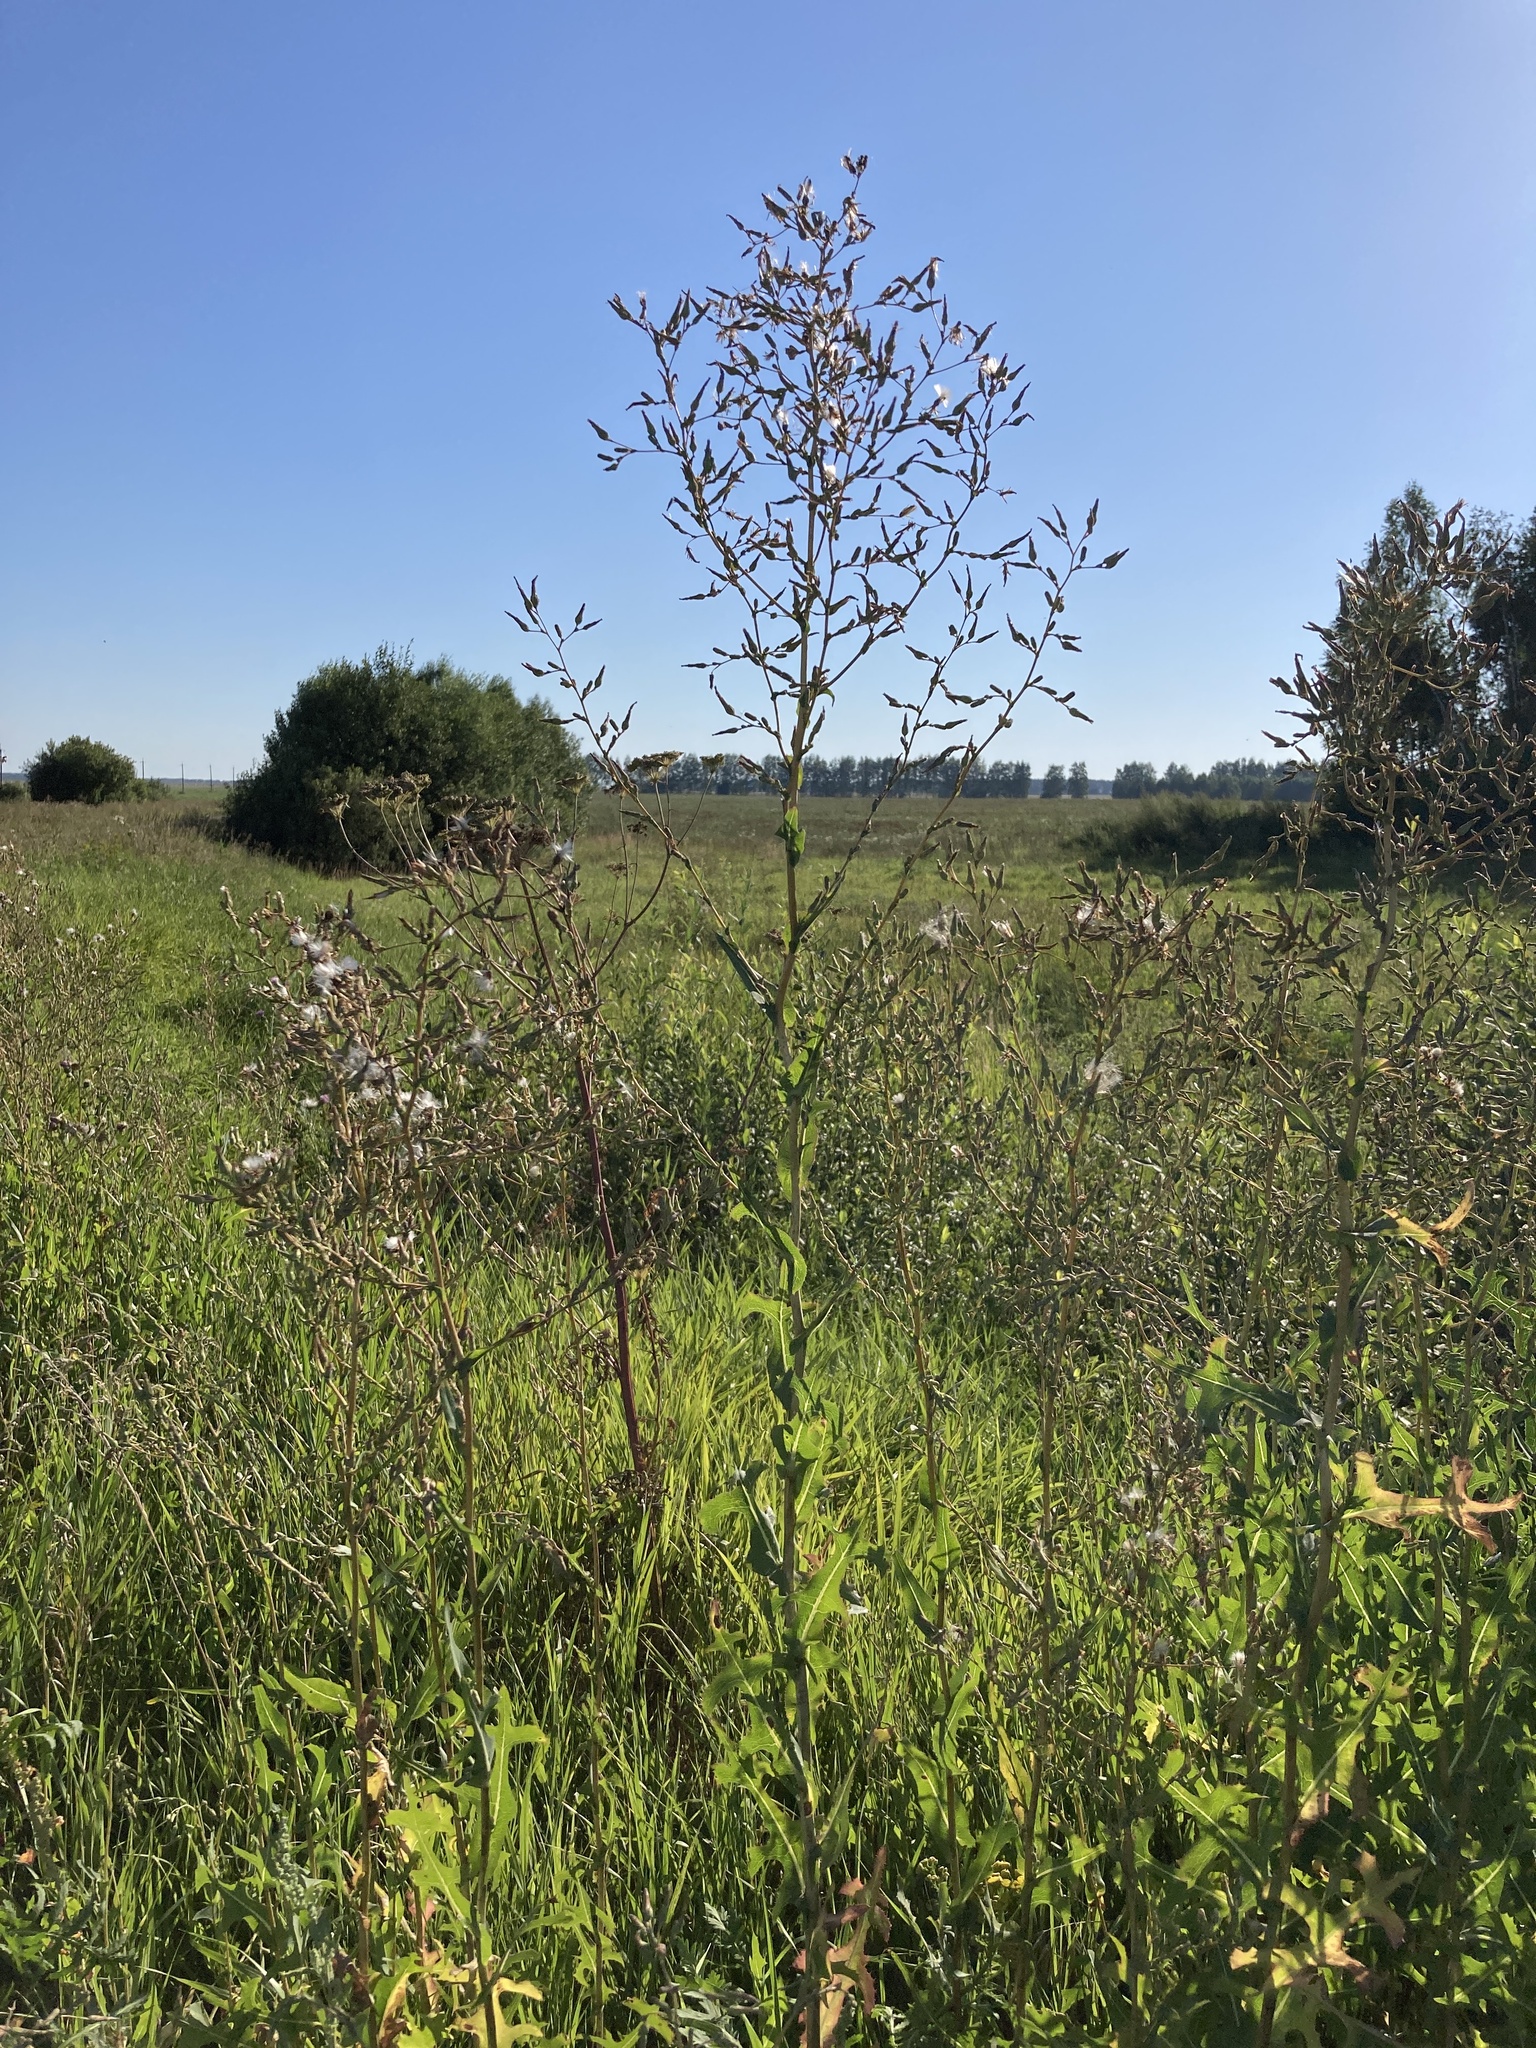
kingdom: Plantae
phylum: Tracheophyta
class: Magnoliopsida
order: Asterales
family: Asteraceae
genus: Lactuca
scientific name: Lactuca serriola
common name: Prickly lettuce
